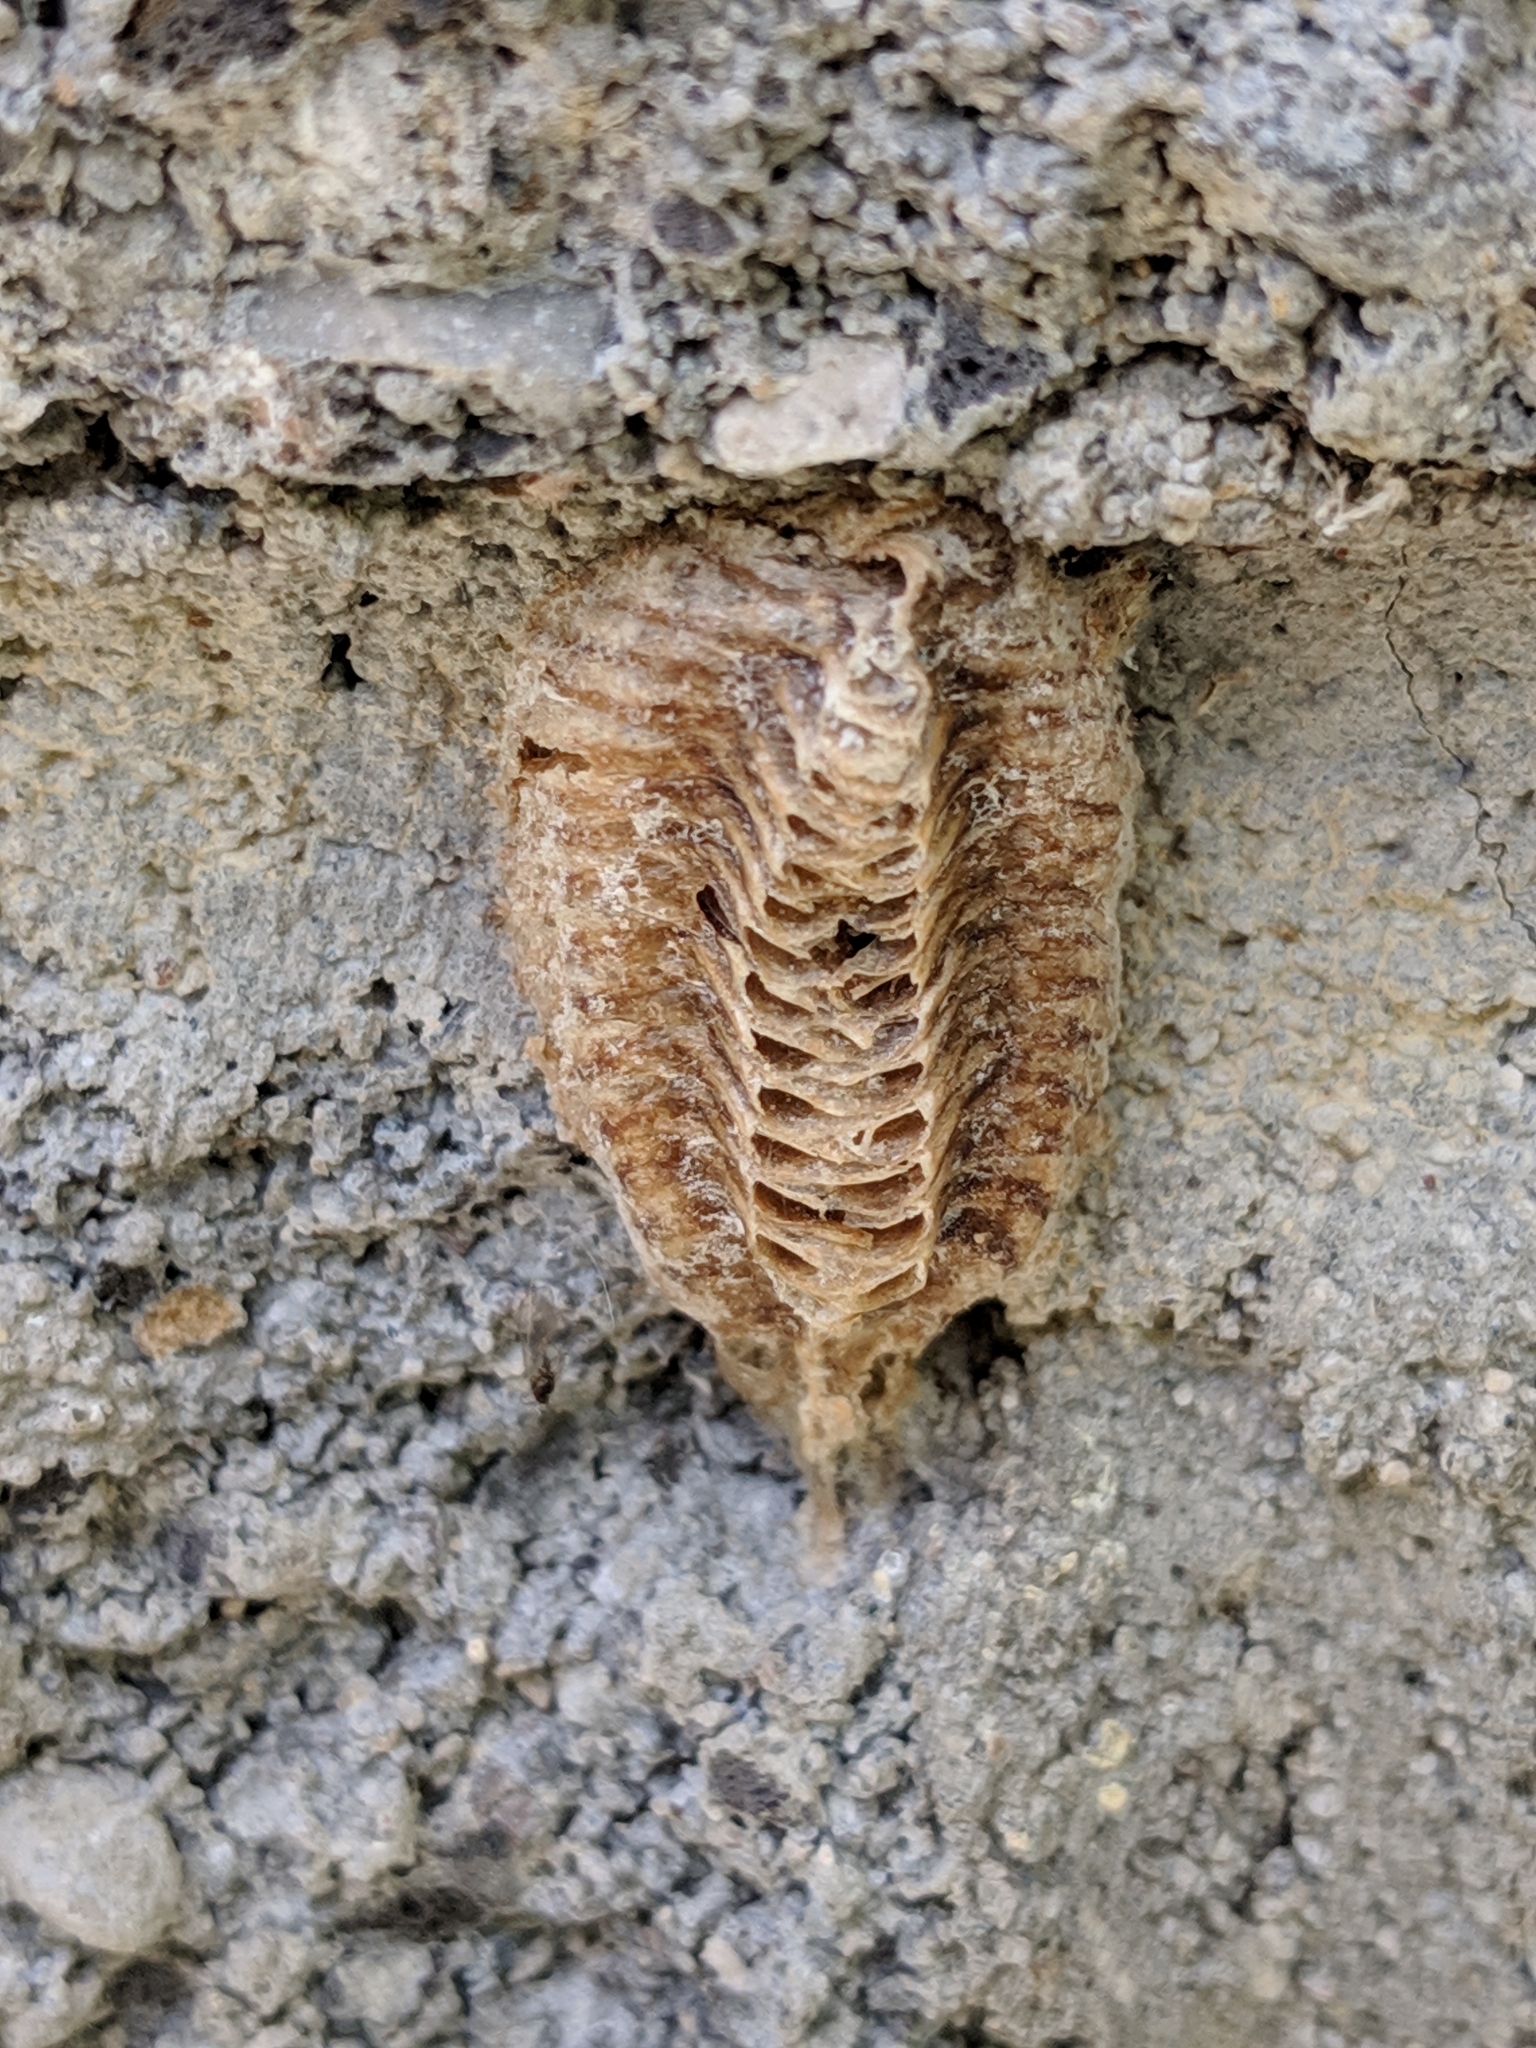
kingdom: Animalia
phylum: Arthropoda
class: Insecta
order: Mantodea
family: Mantidae
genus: Stagmomantis
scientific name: Stagmomantis carolina
